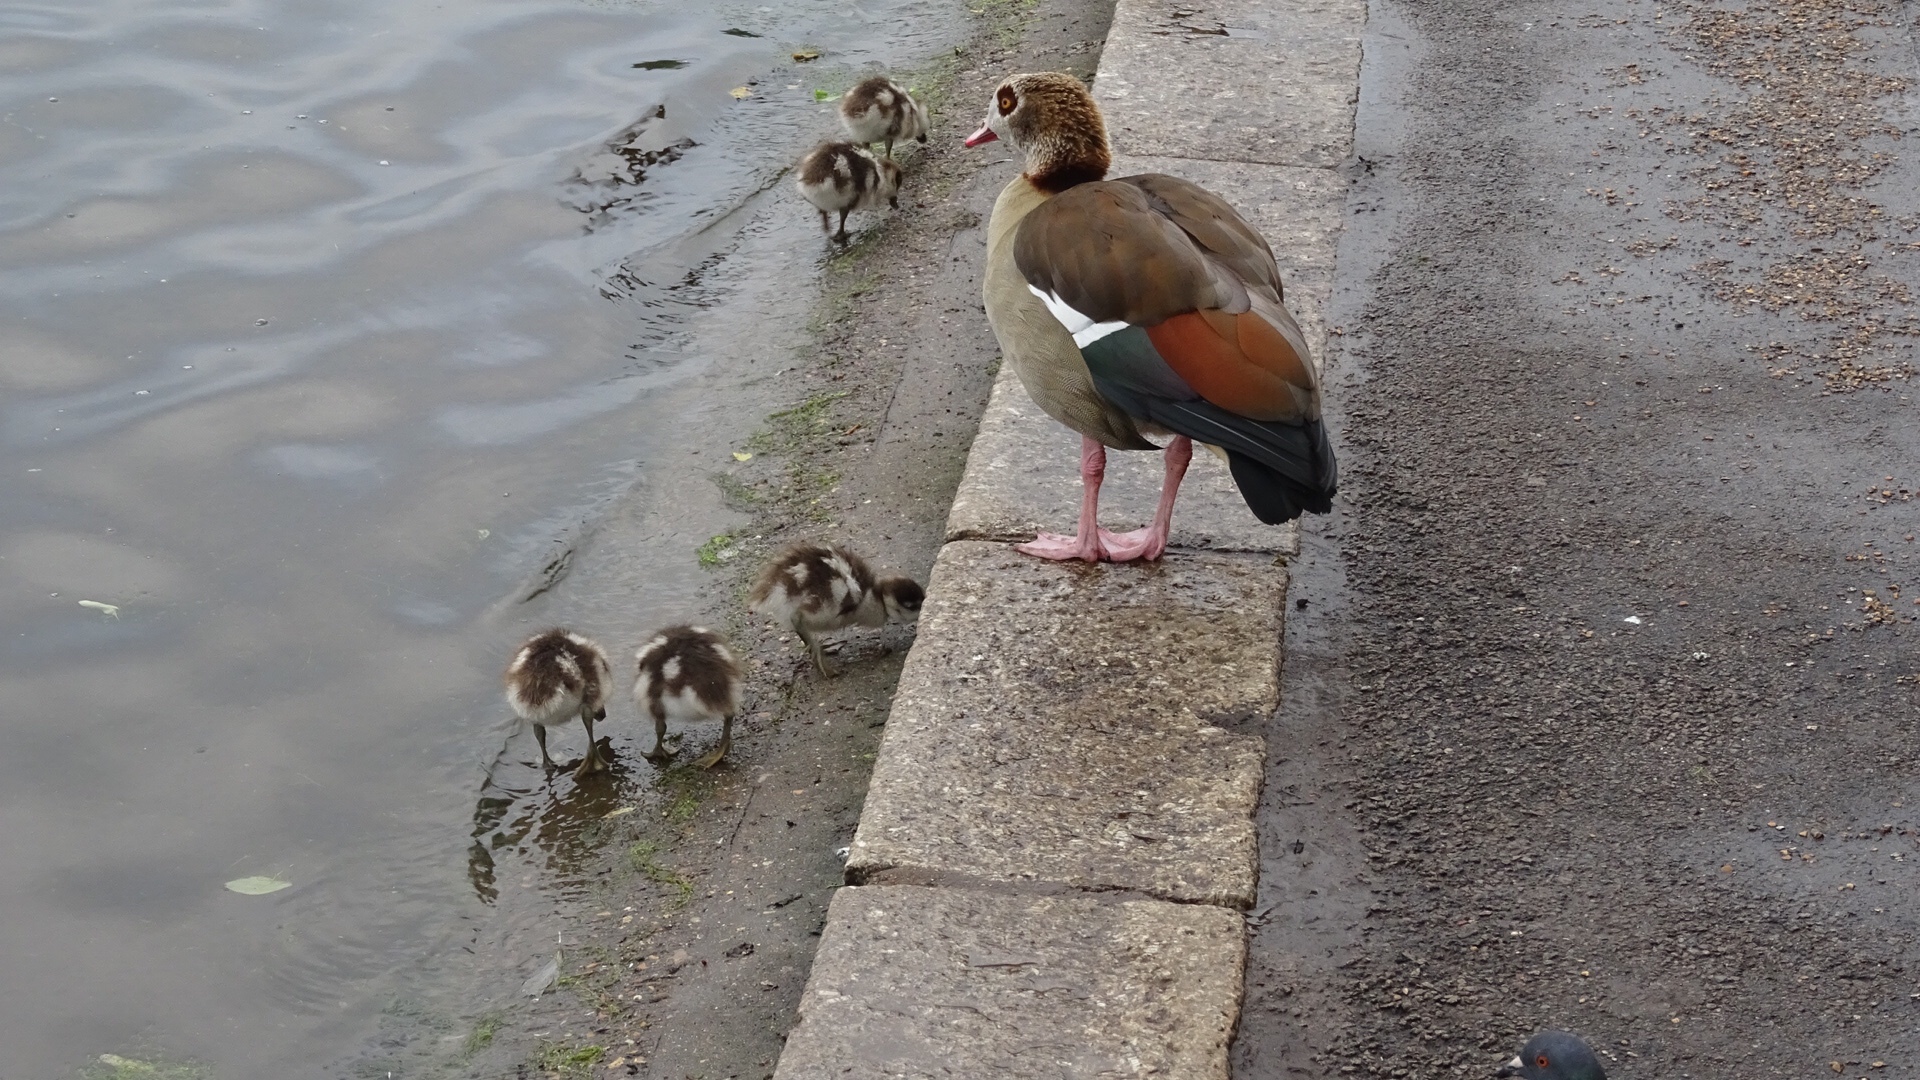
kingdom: Animalia
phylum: Chordata
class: Aves
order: Anseriformes
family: Anatidae
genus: Alopochen
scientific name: Alopochen aegyptiaca
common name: Egyptian goose
